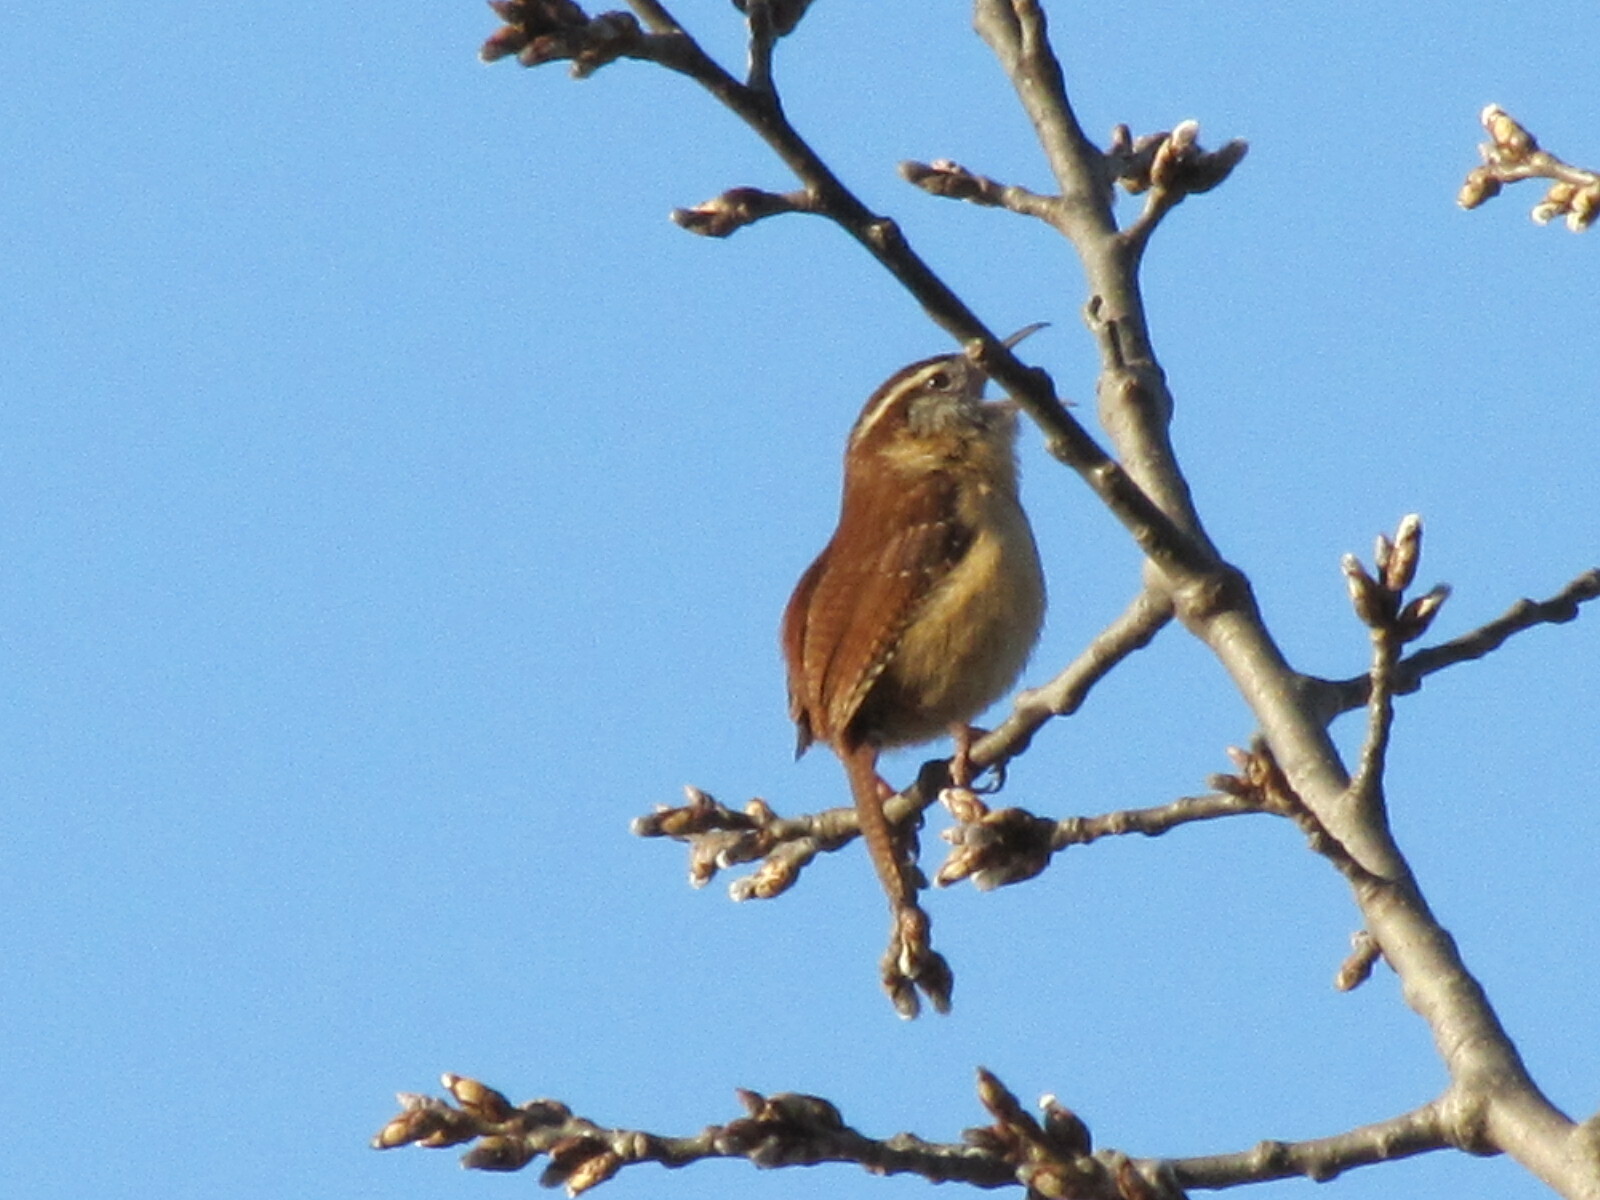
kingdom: Animalia
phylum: Chordata
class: Aves
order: Passeriformes
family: Troglodytidae
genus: Thryothorus
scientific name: Thryothorus ludovicianus
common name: Carolina wren
